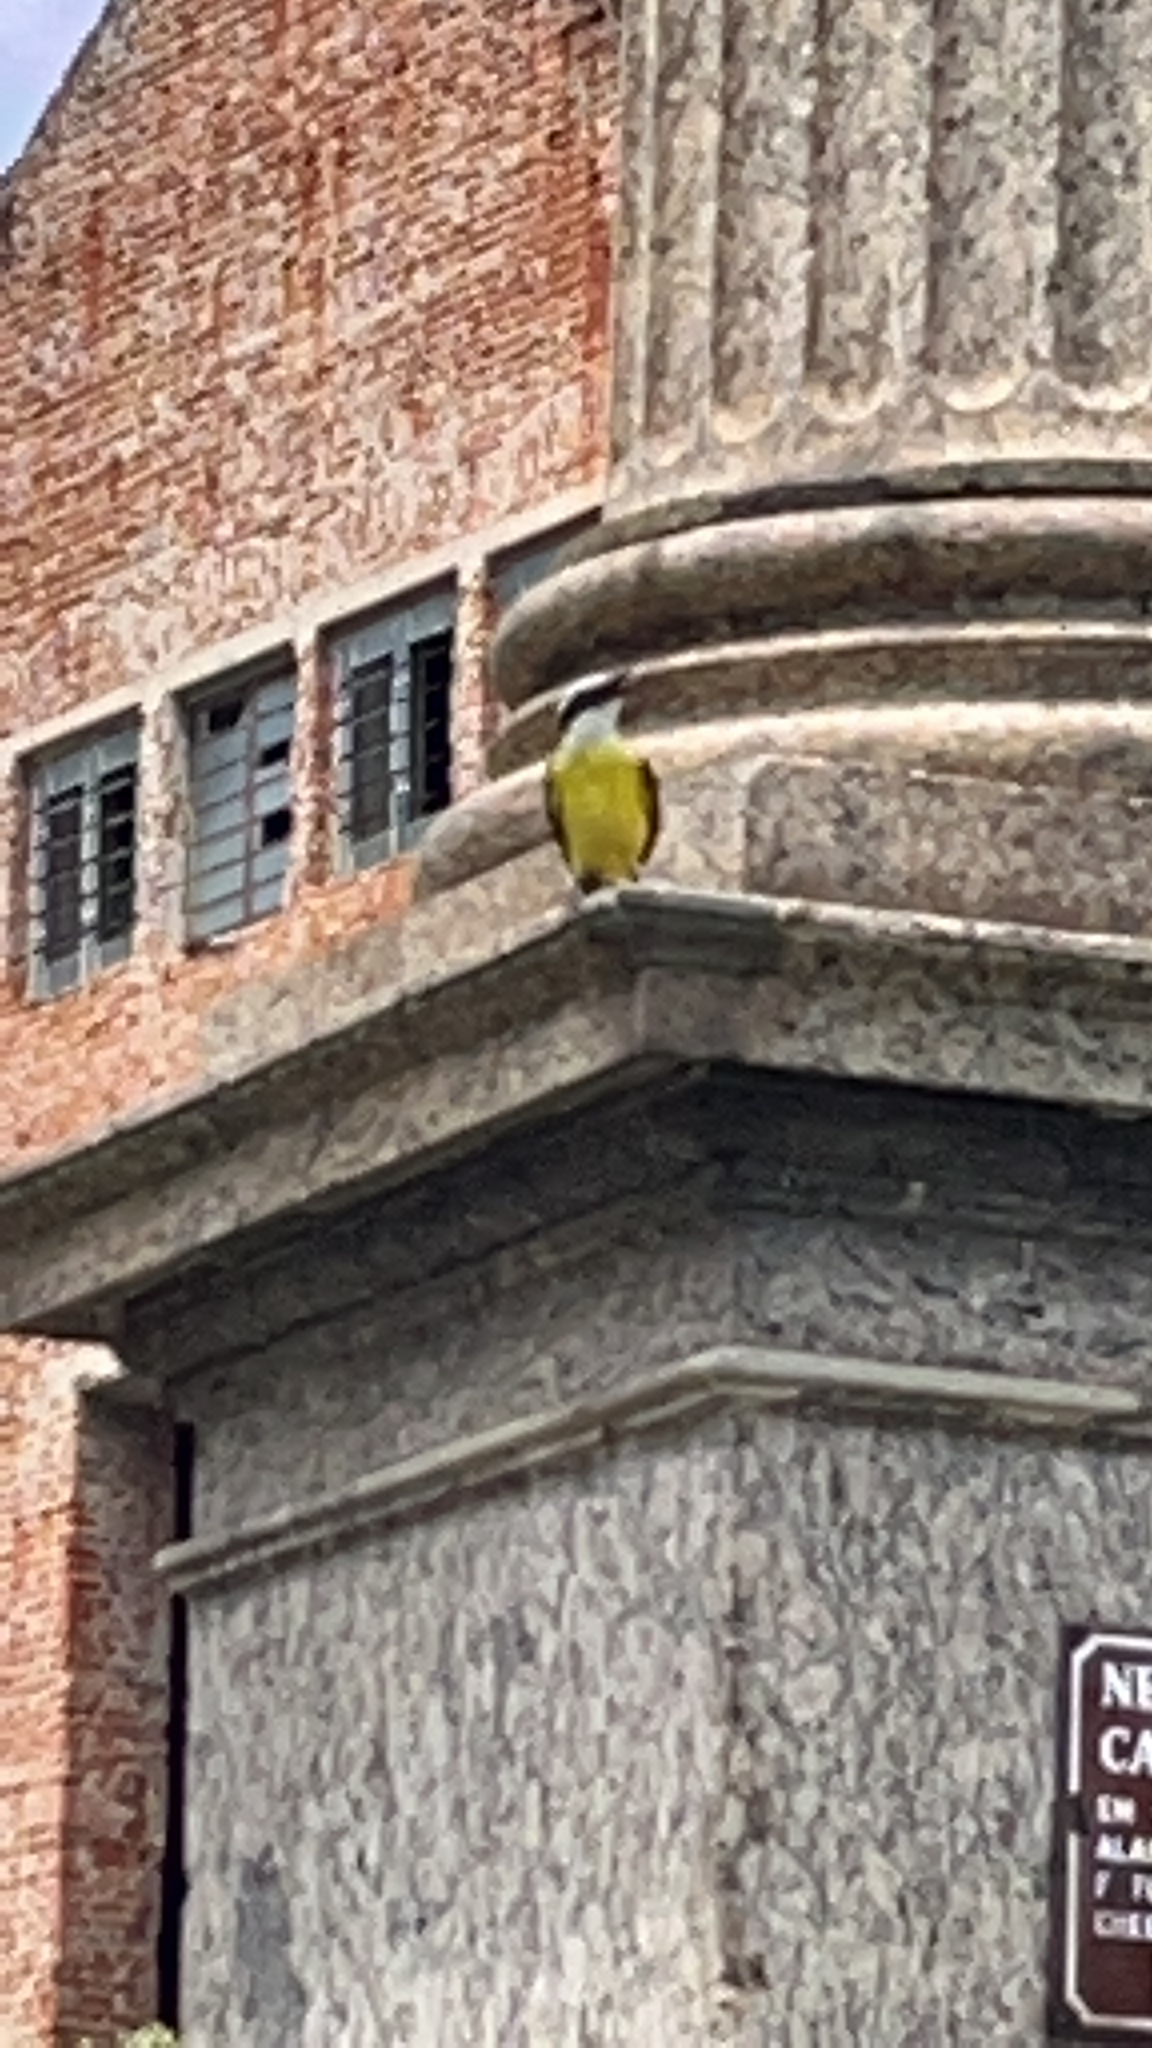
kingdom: Animalia
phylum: Chordata
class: Aves
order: Passeriformes
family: Tyrannidae
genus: Pitangus
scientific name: Pitangus sulphuratus
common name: Great kiskadee
